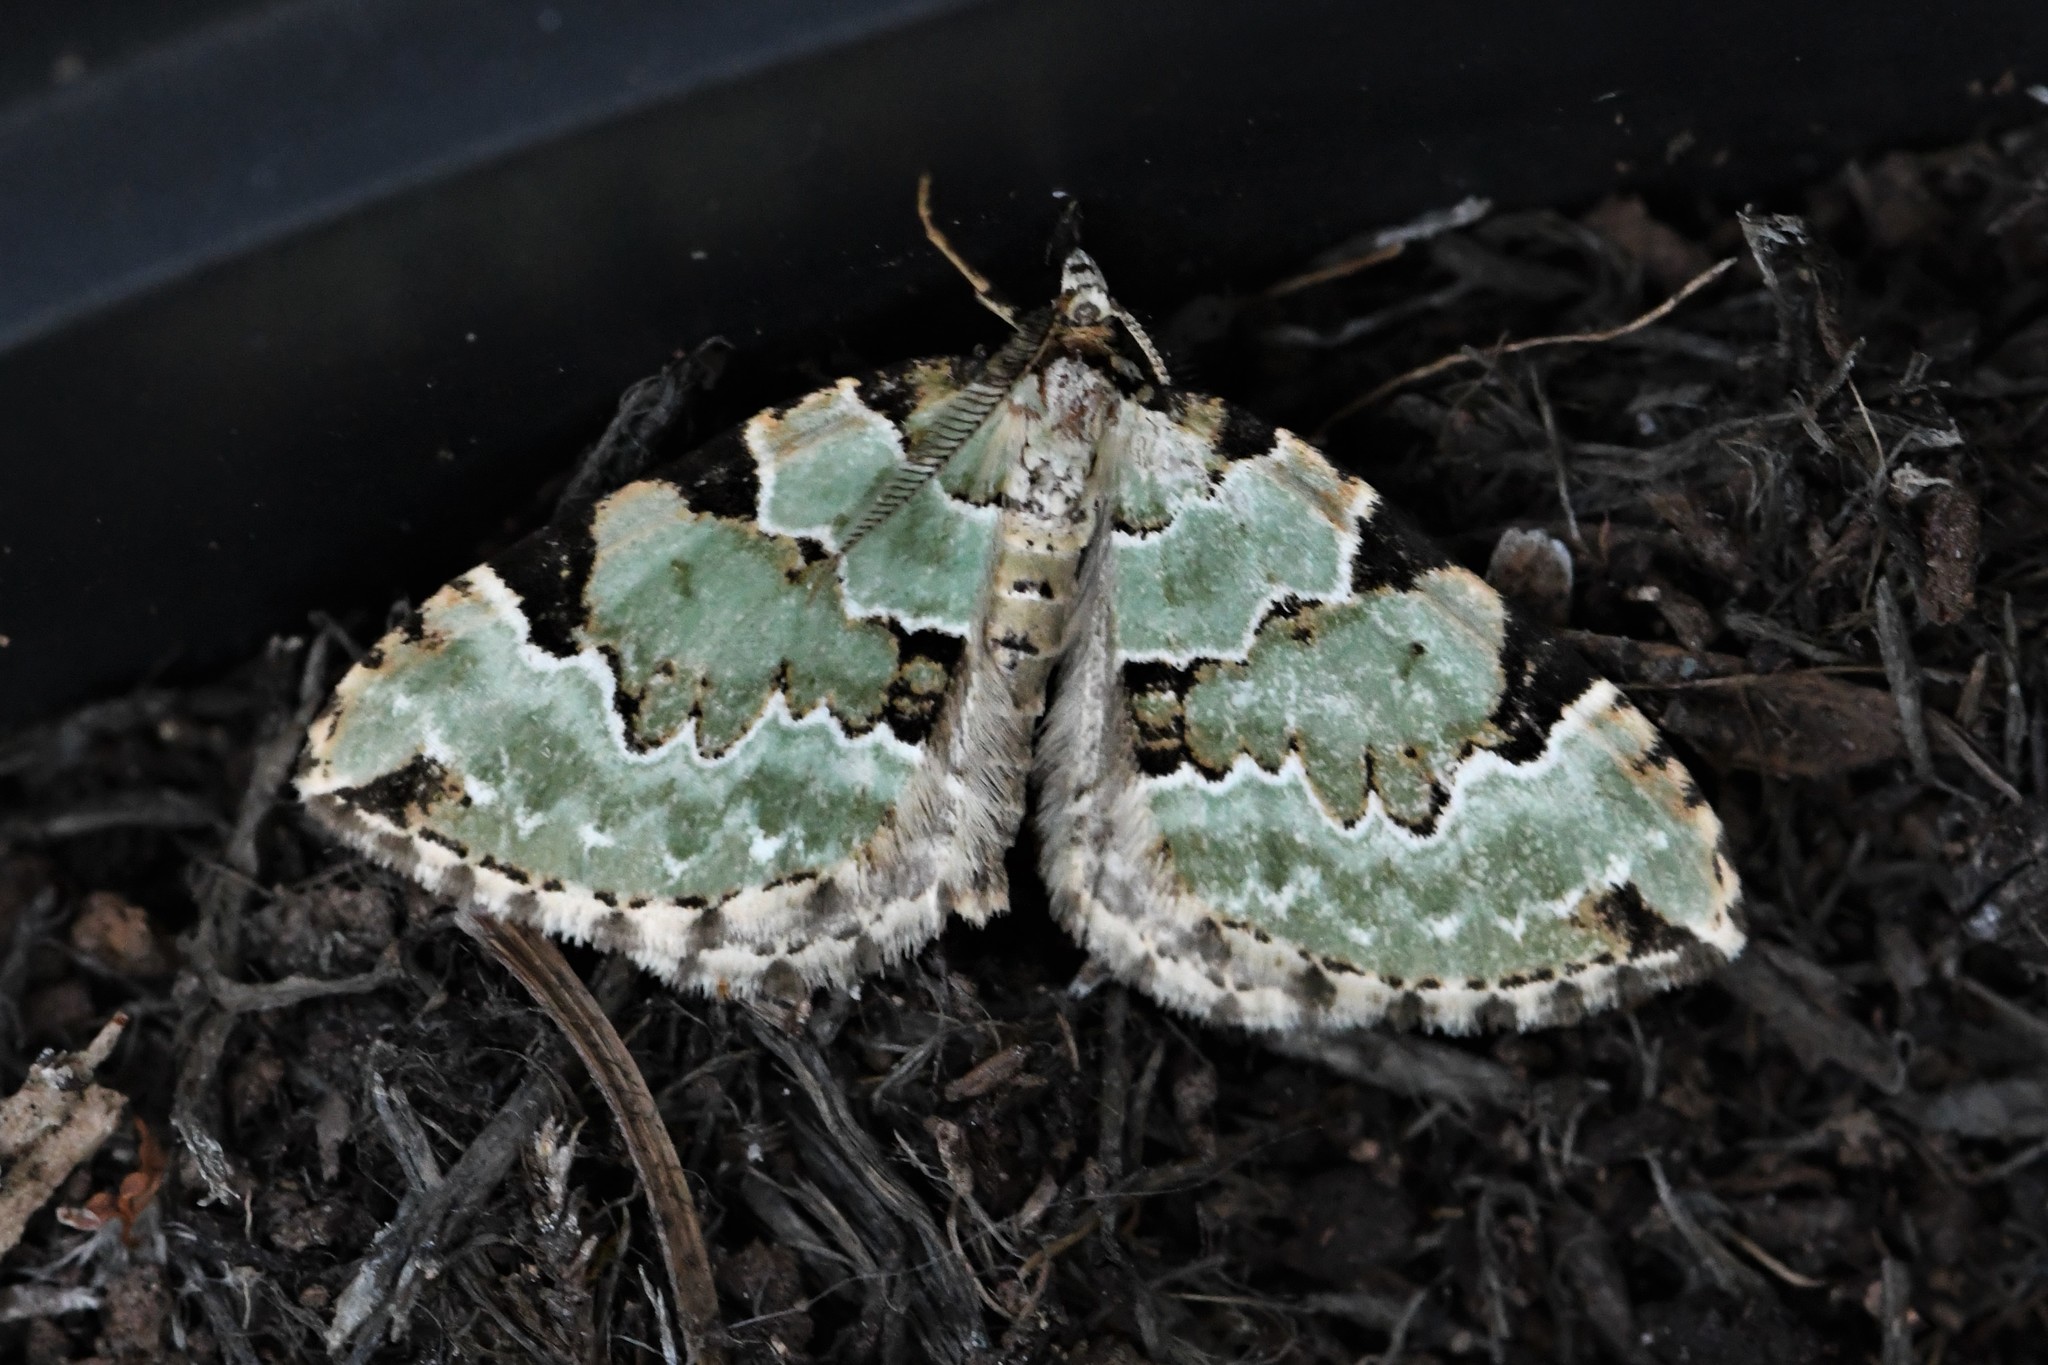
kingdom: Animalia
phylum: Arthropoda
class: Insecta
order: Lepidoptera
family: Geometridae
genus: Colostygia
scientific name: Colostygia pectinataria
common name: Green carpet
